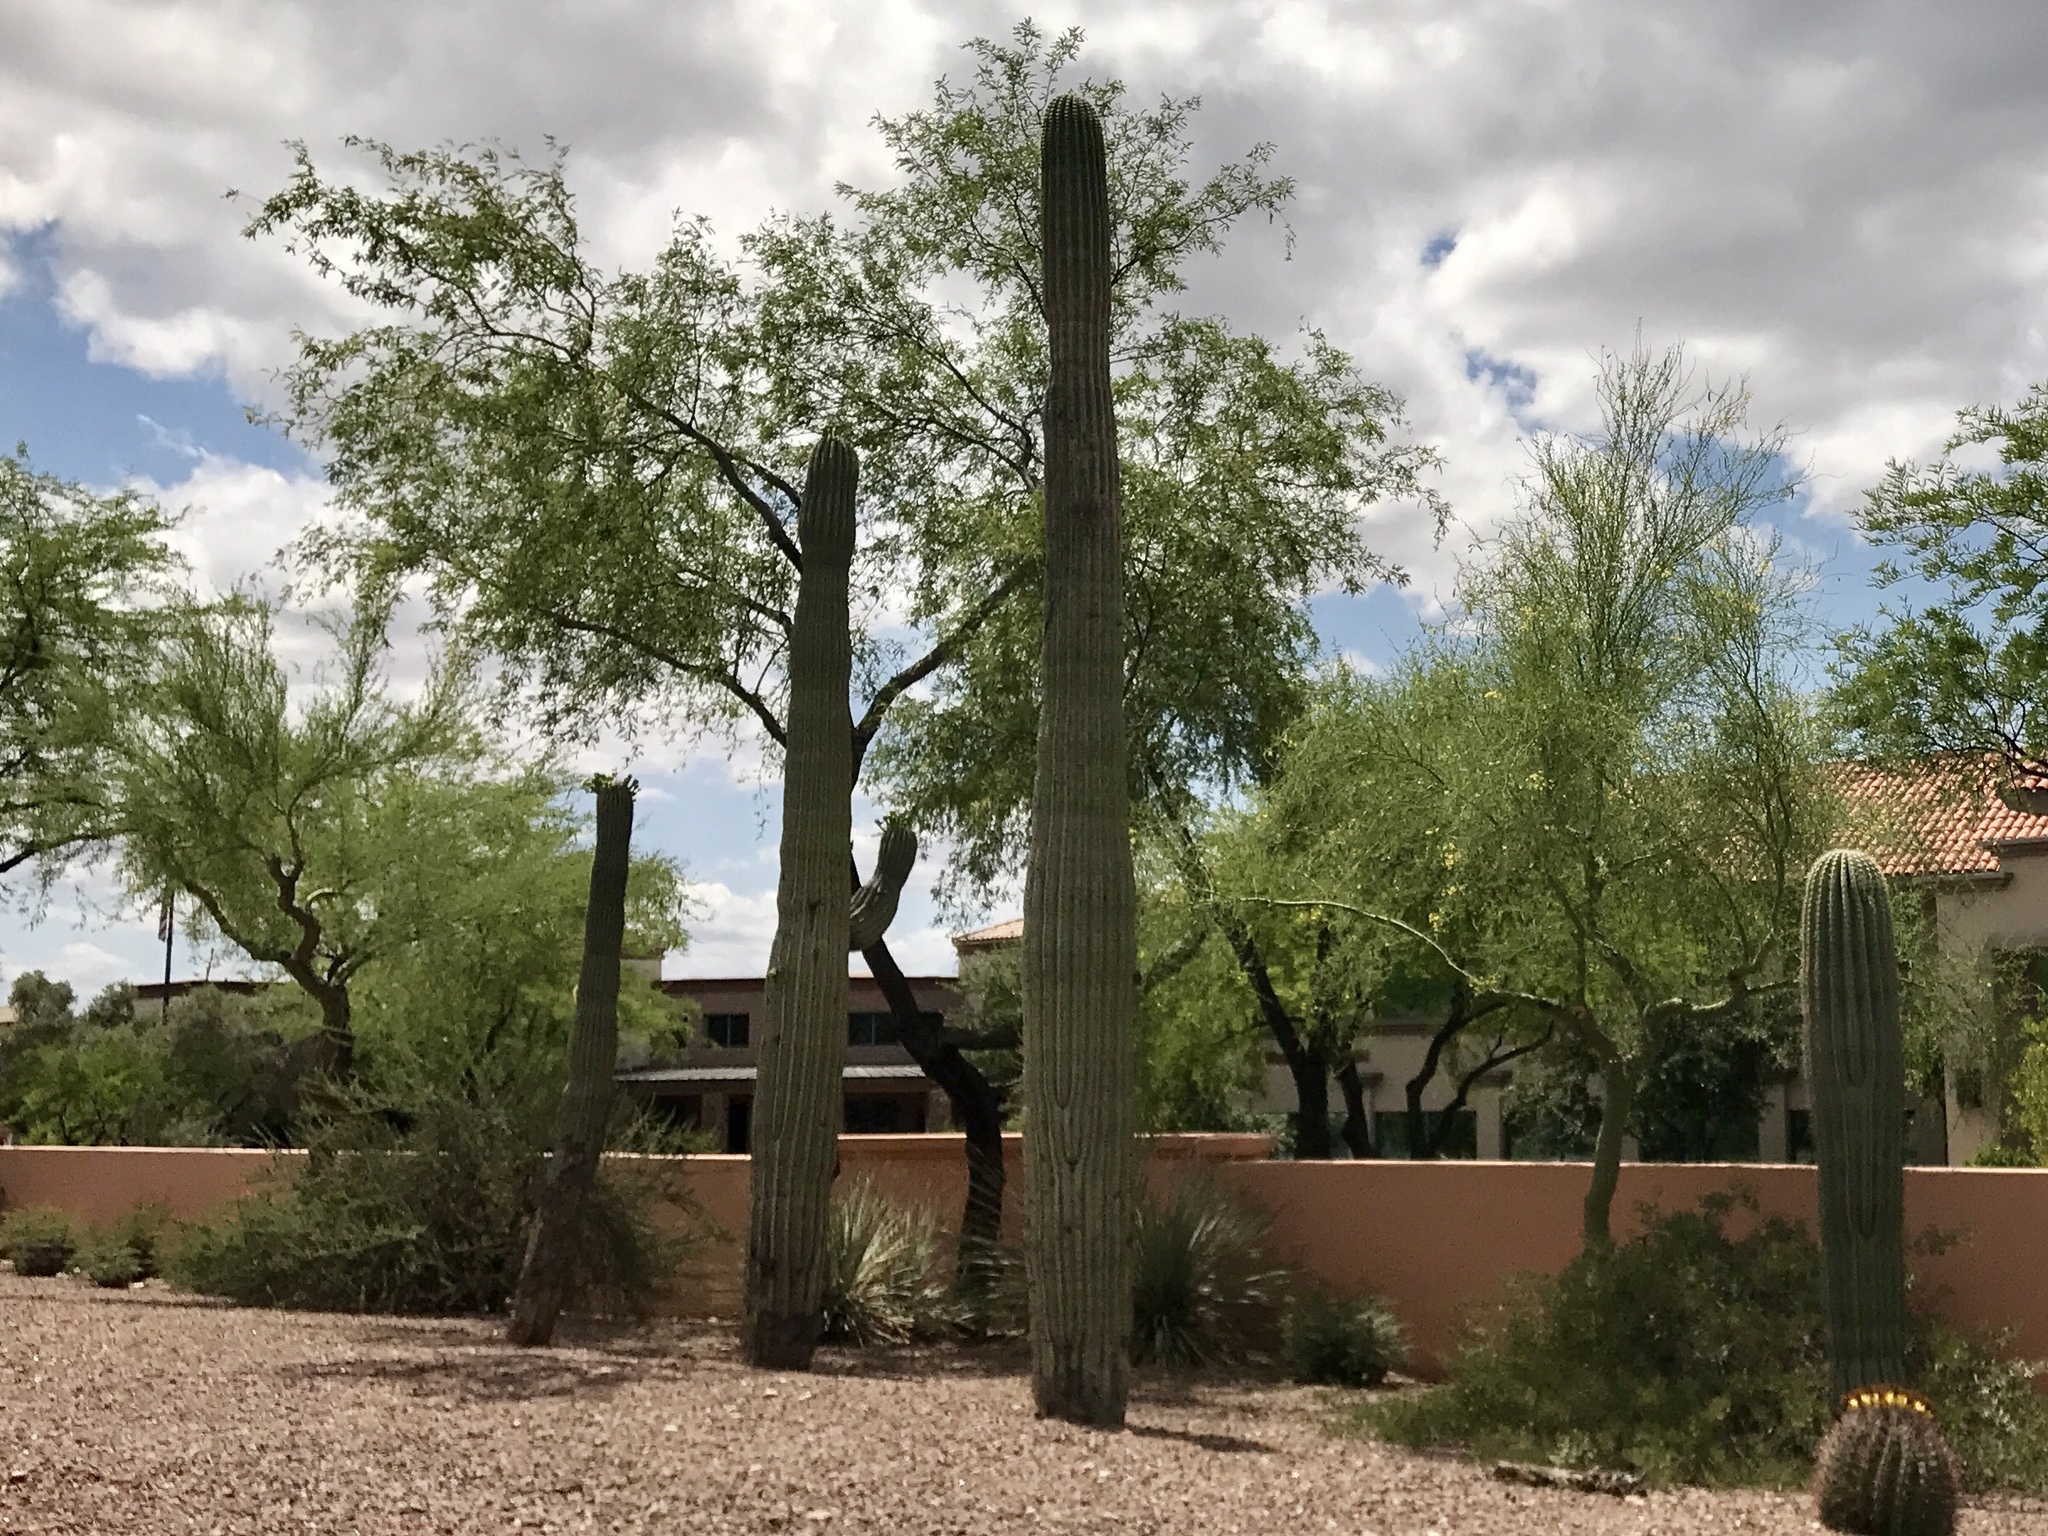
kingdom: Plantae
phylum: Tracheophyta
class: Magnoliopsida
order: Caryophyllales
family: Cactaceae
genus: Carnegiea
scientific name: Carnegiea gigantea
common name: Saguaro
